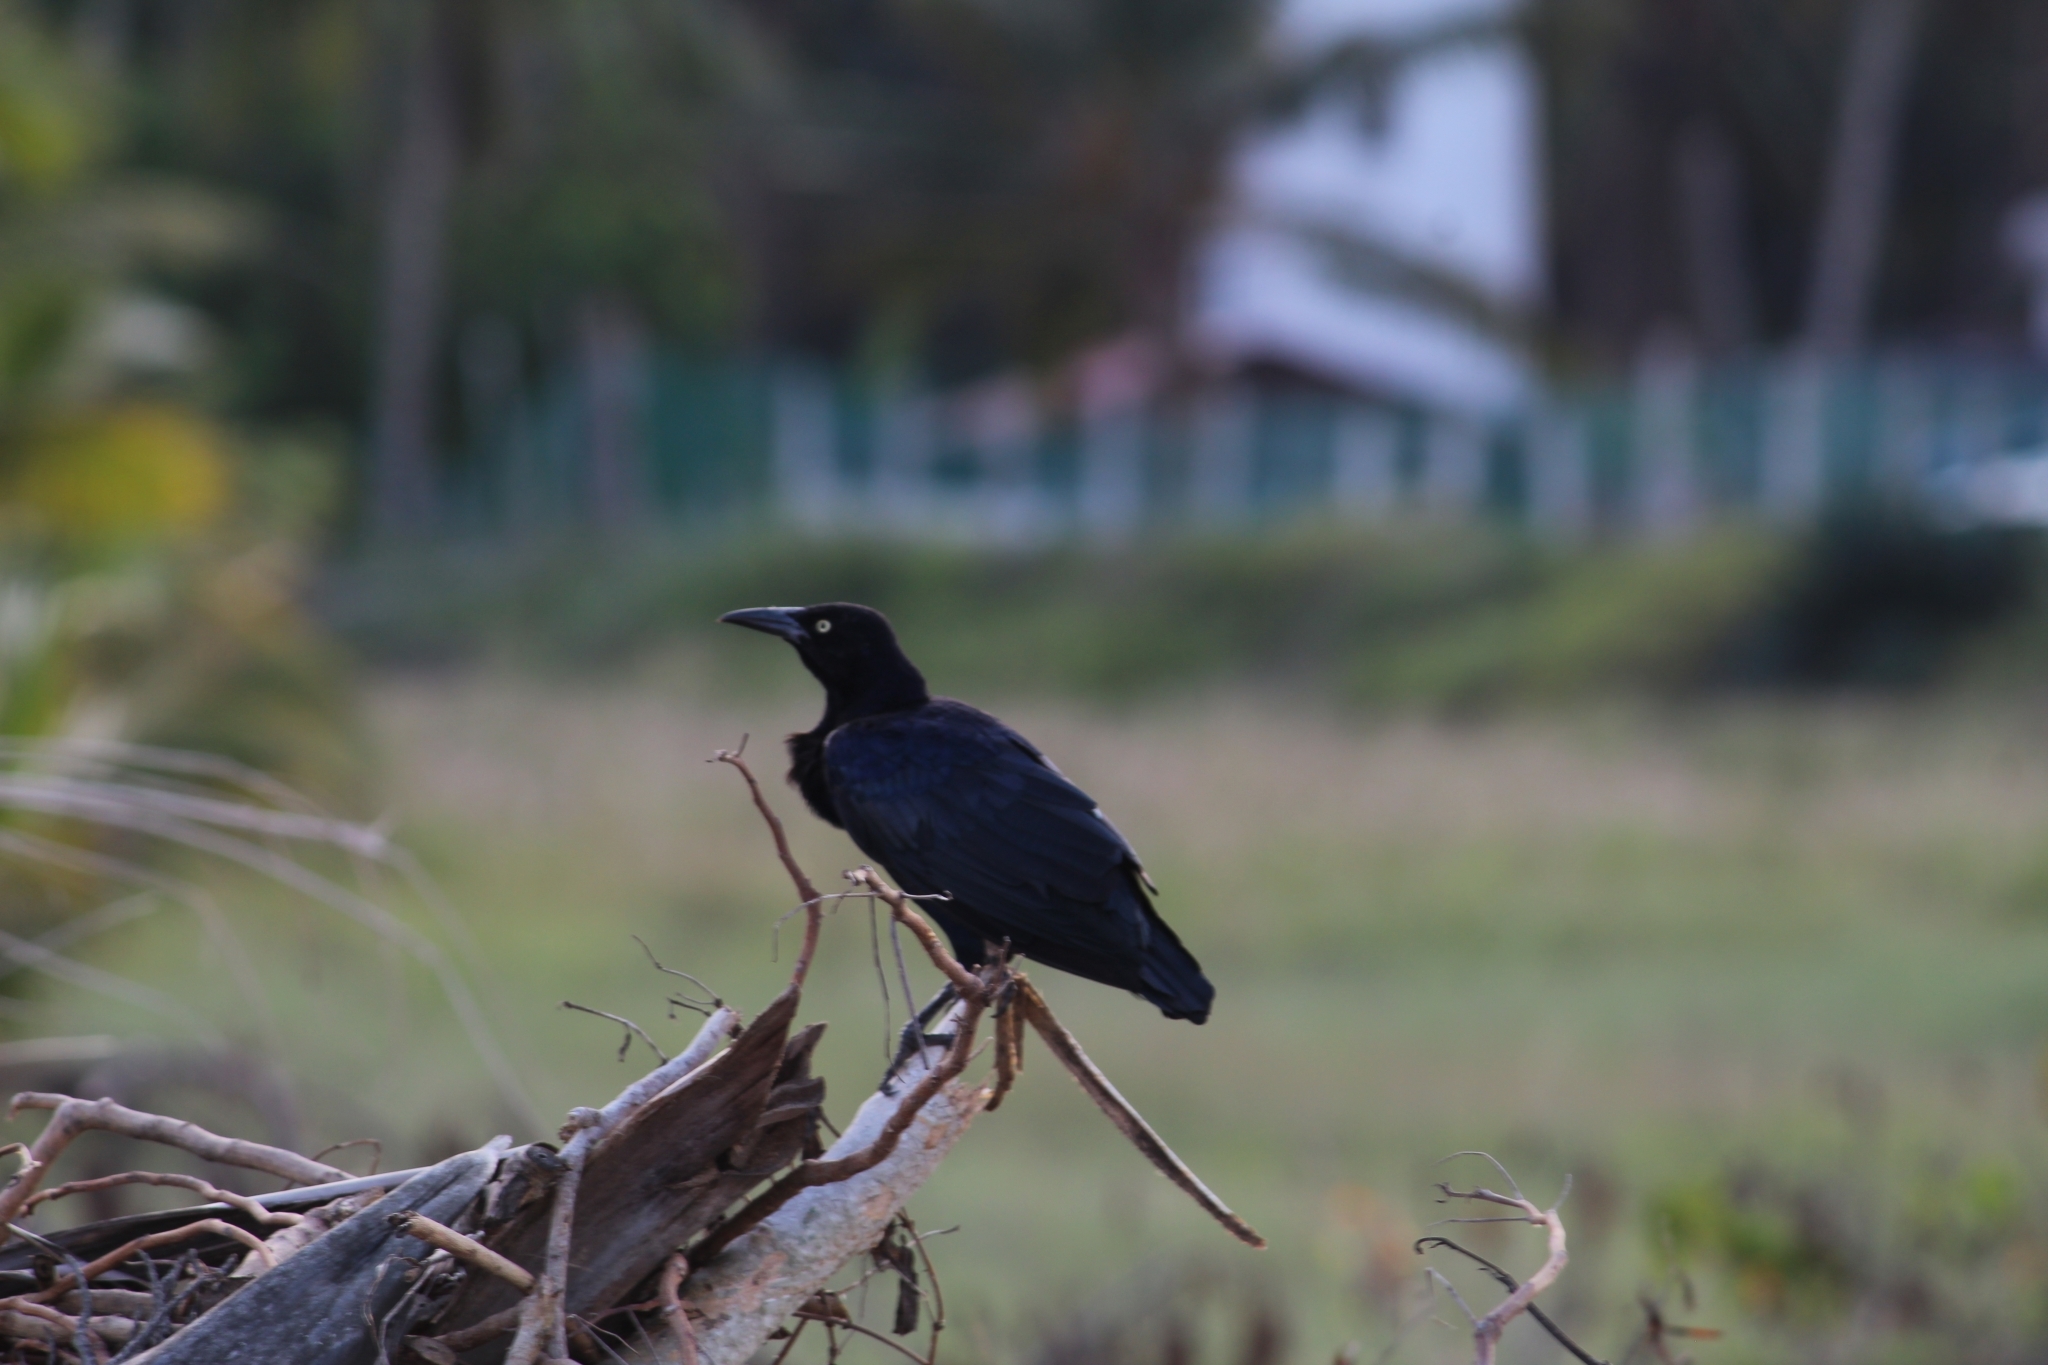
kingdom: Animalia
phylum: Chordata
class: Aves
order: Passeriformes
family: Icteridae
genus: Quiscalus
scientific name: Quiscalus mexicanus
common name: Great-tailed grackle
